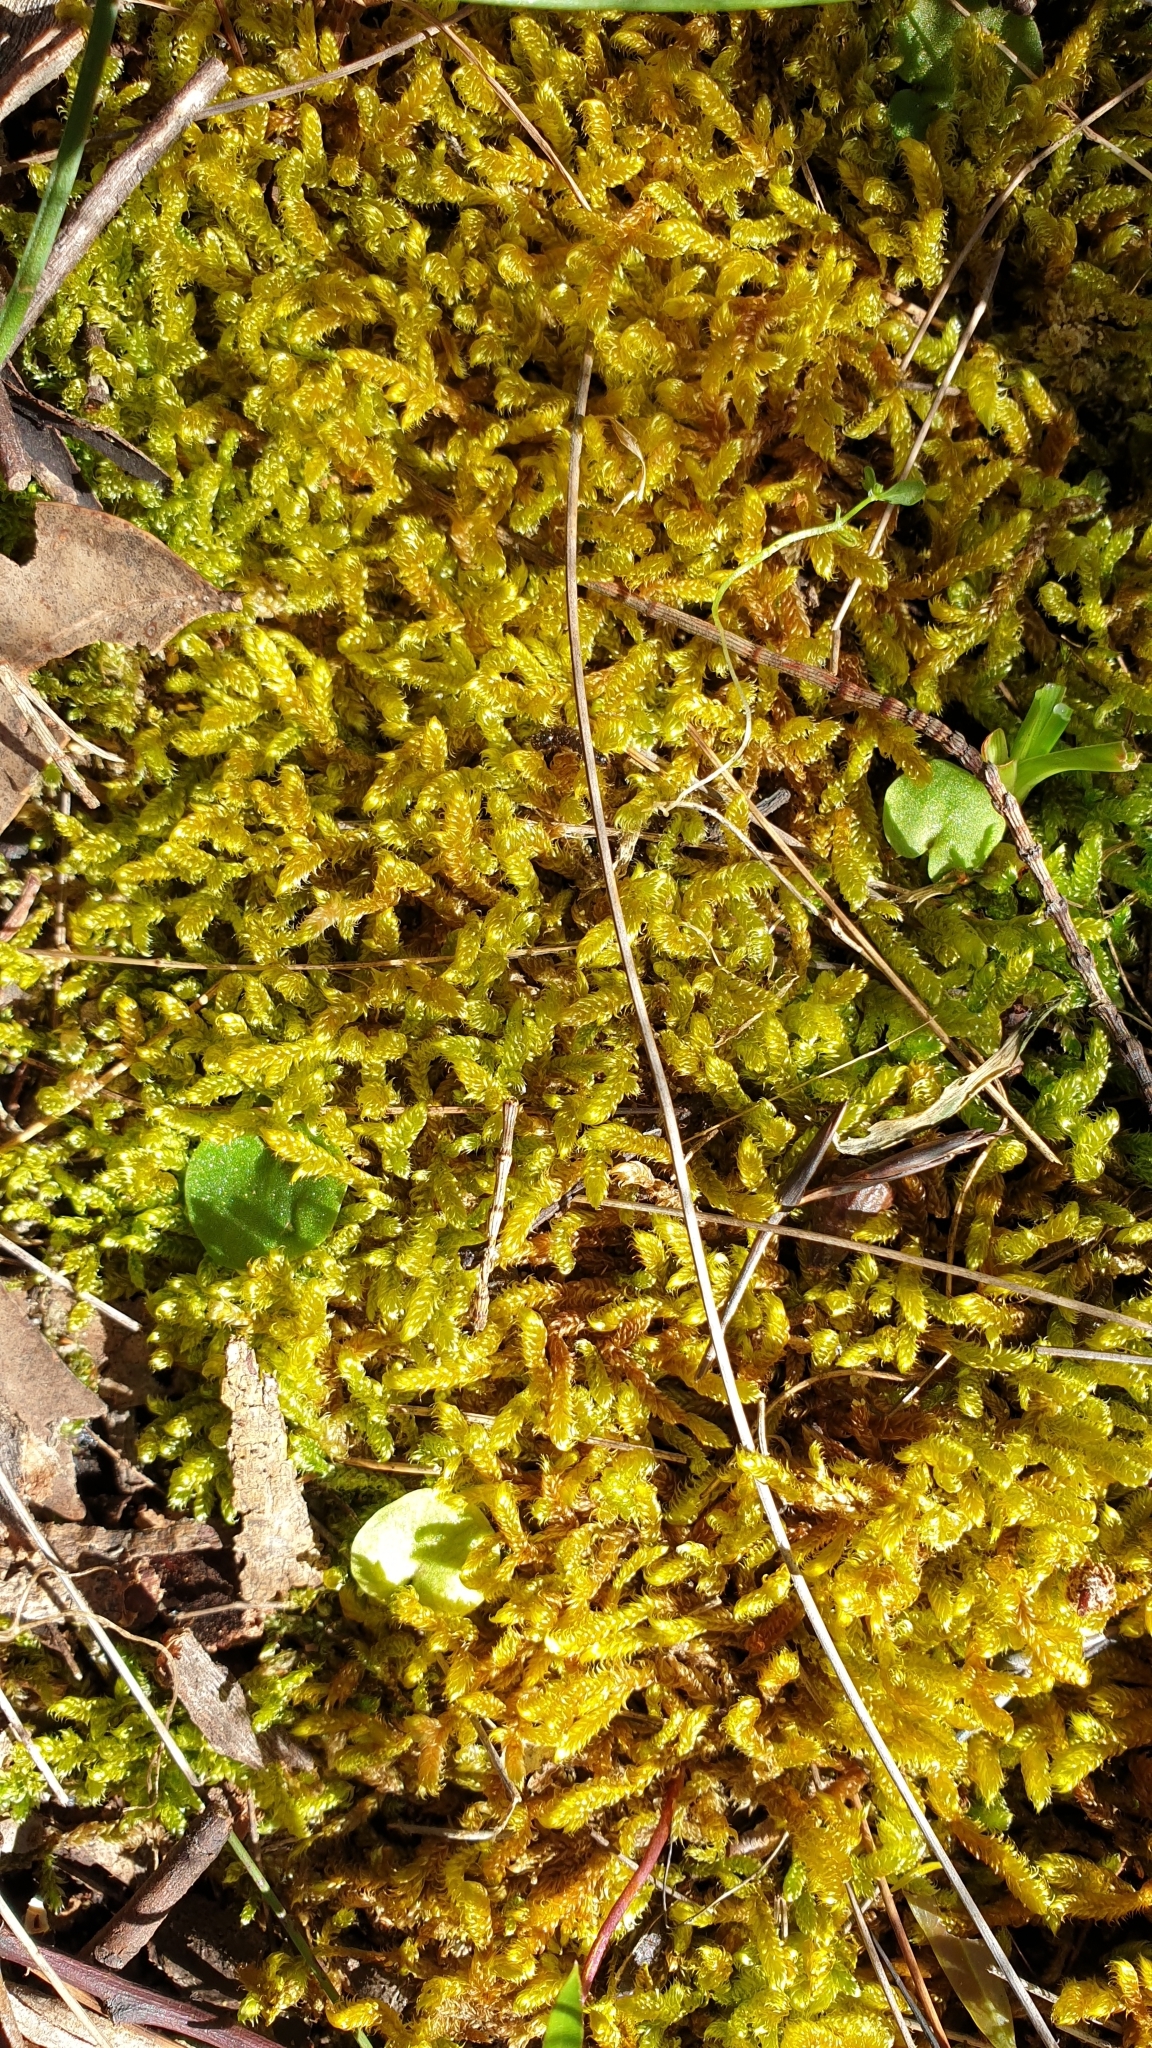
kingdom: Plantae
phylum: Bryophyta
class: Bryopsida
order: Hypnales
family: Hypnaceae
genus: Hypnum
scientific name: Hypnum cupressiforme
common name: Cypress-leaved plait-moss
